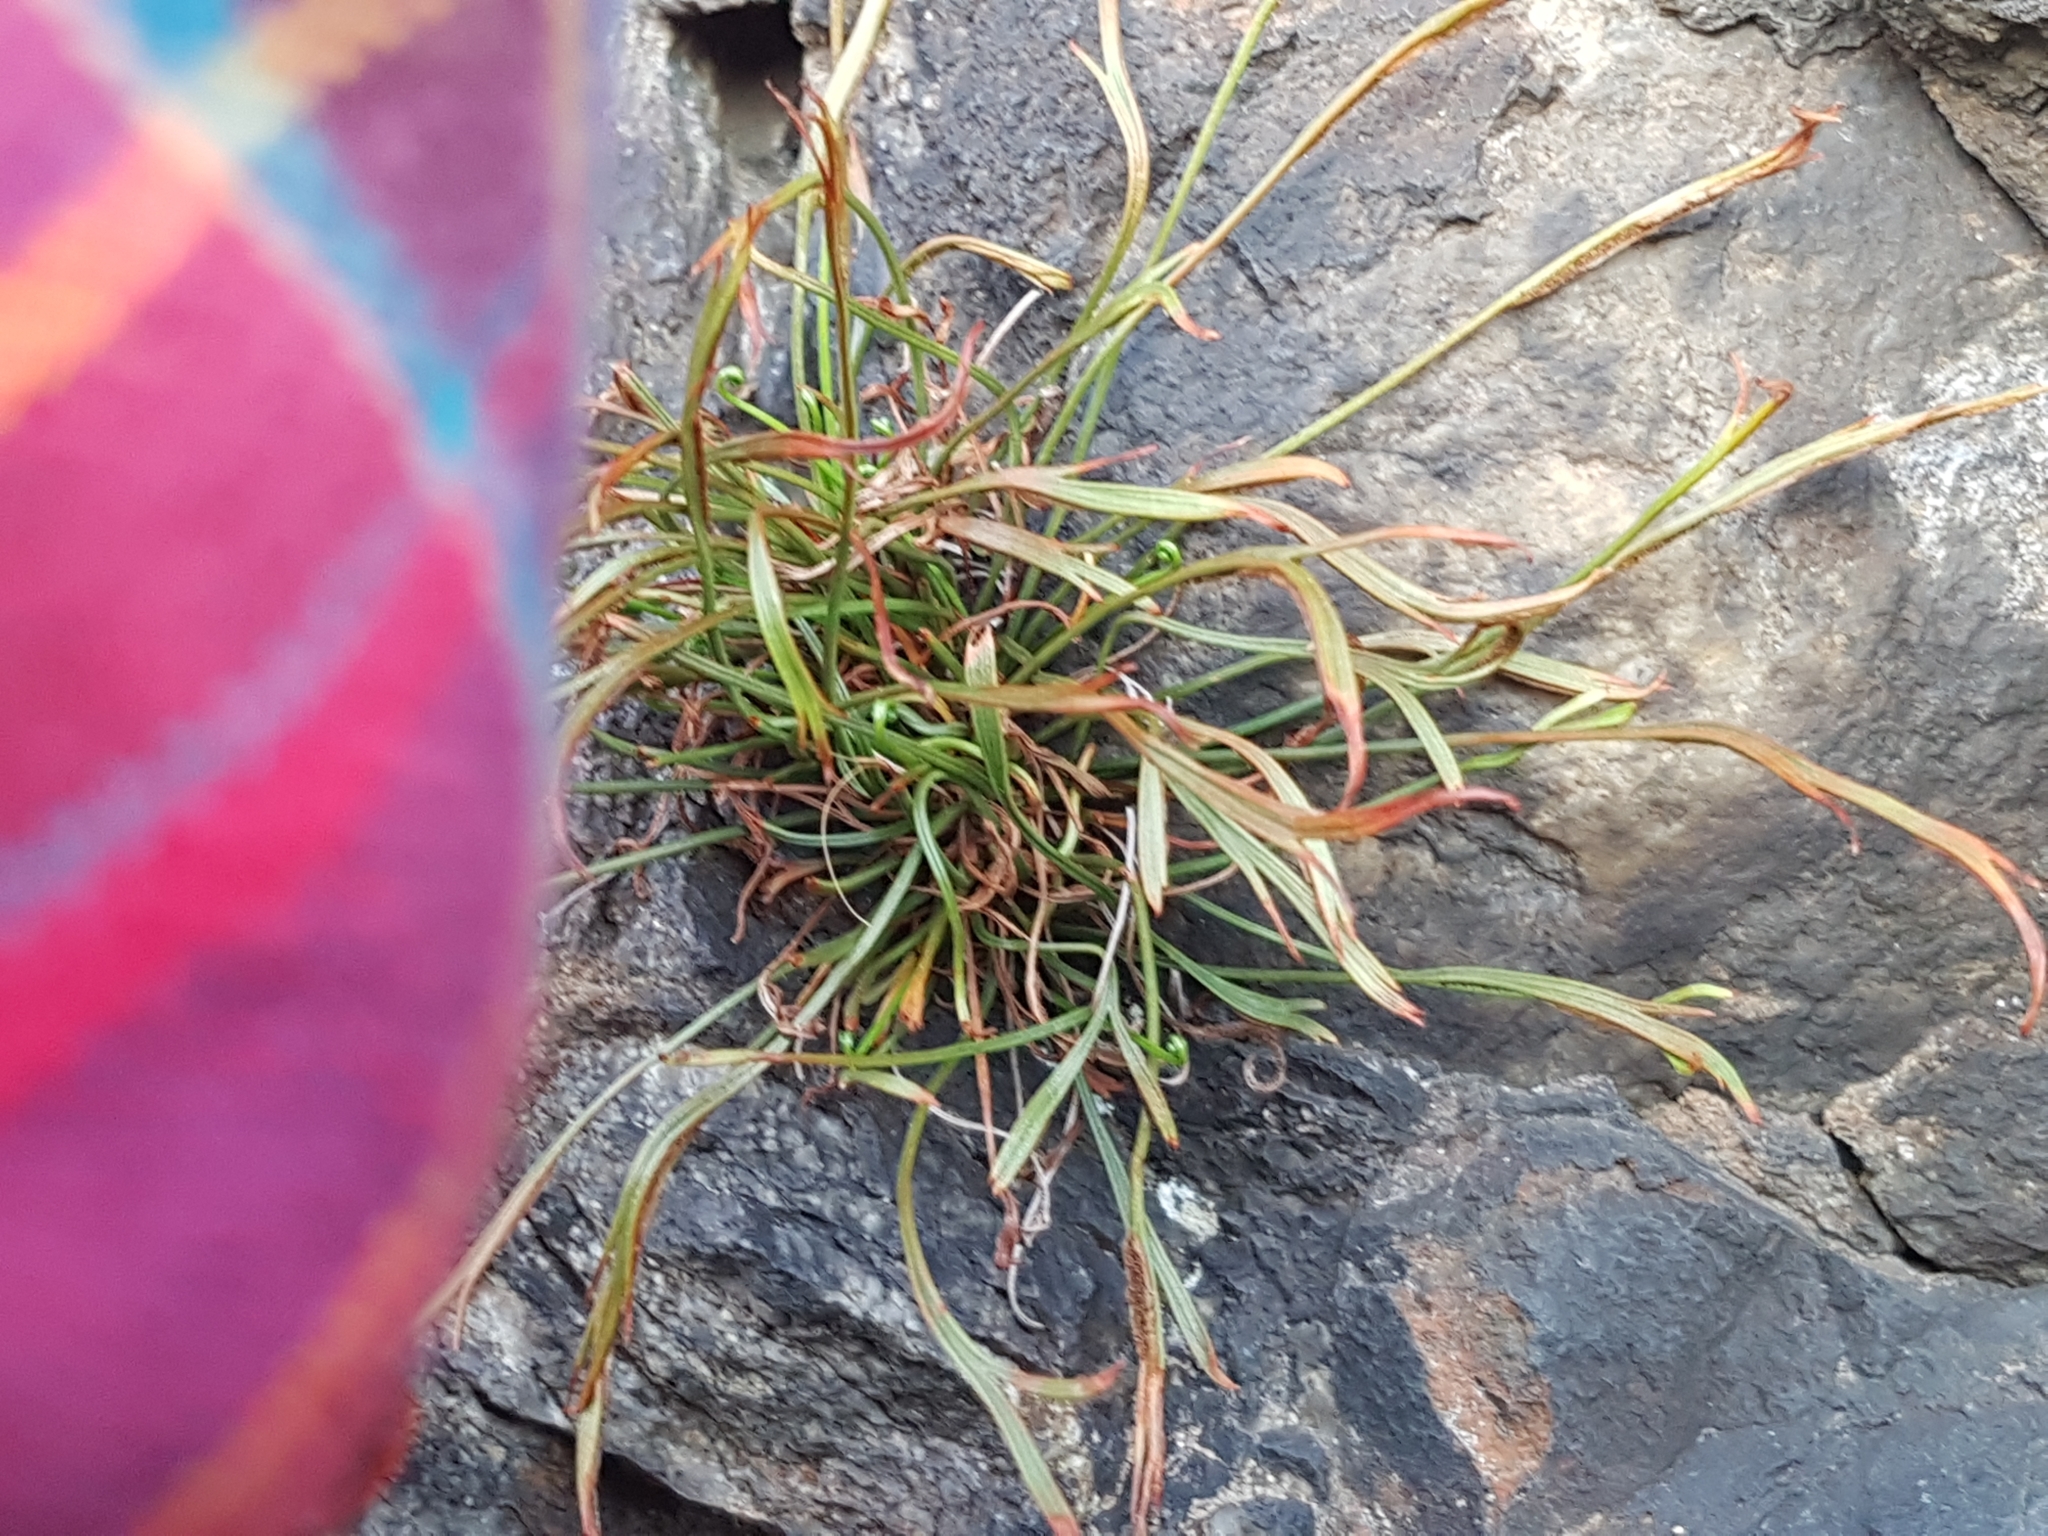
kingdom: Plantae
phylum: Tracheophyta
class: Polypodiopsida
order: Polypodiales
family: Aspleniaceae
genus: Asplenium
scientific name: Asplenium septentrionale
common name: Forked spleenwort
